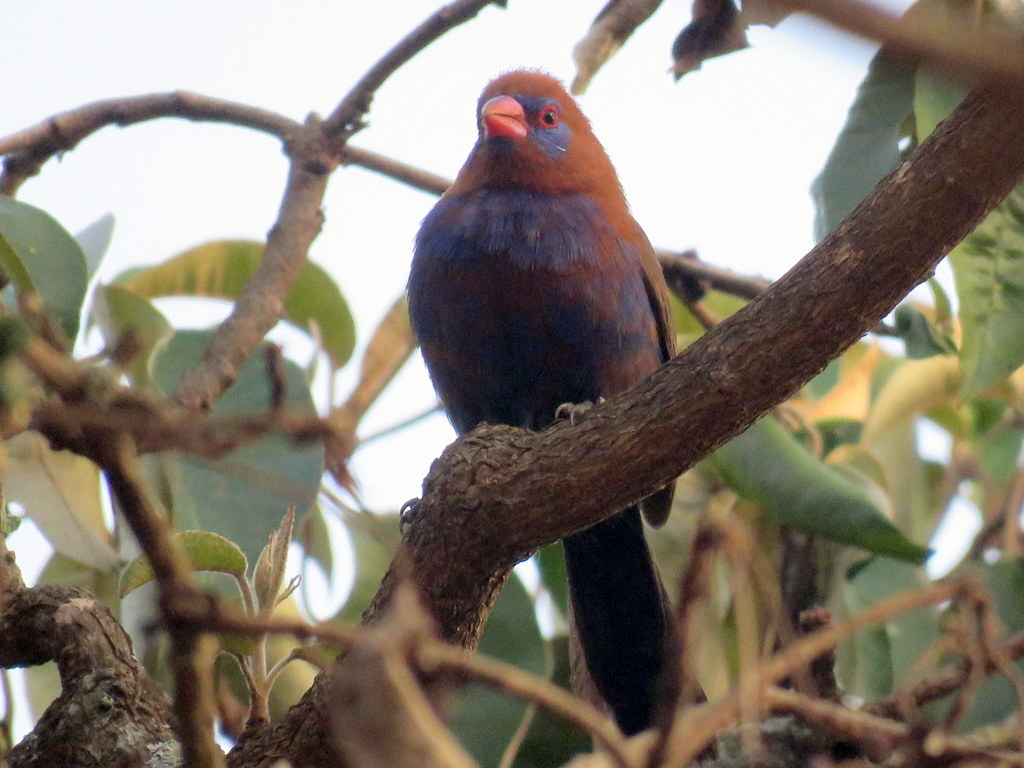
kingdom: Animalia
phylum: Chordata
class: Aves
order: Passeriformes
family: Estrildidae
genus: Uraeginthus
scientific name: Uraeginthus ianthinogaster
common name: Purple grenadier
